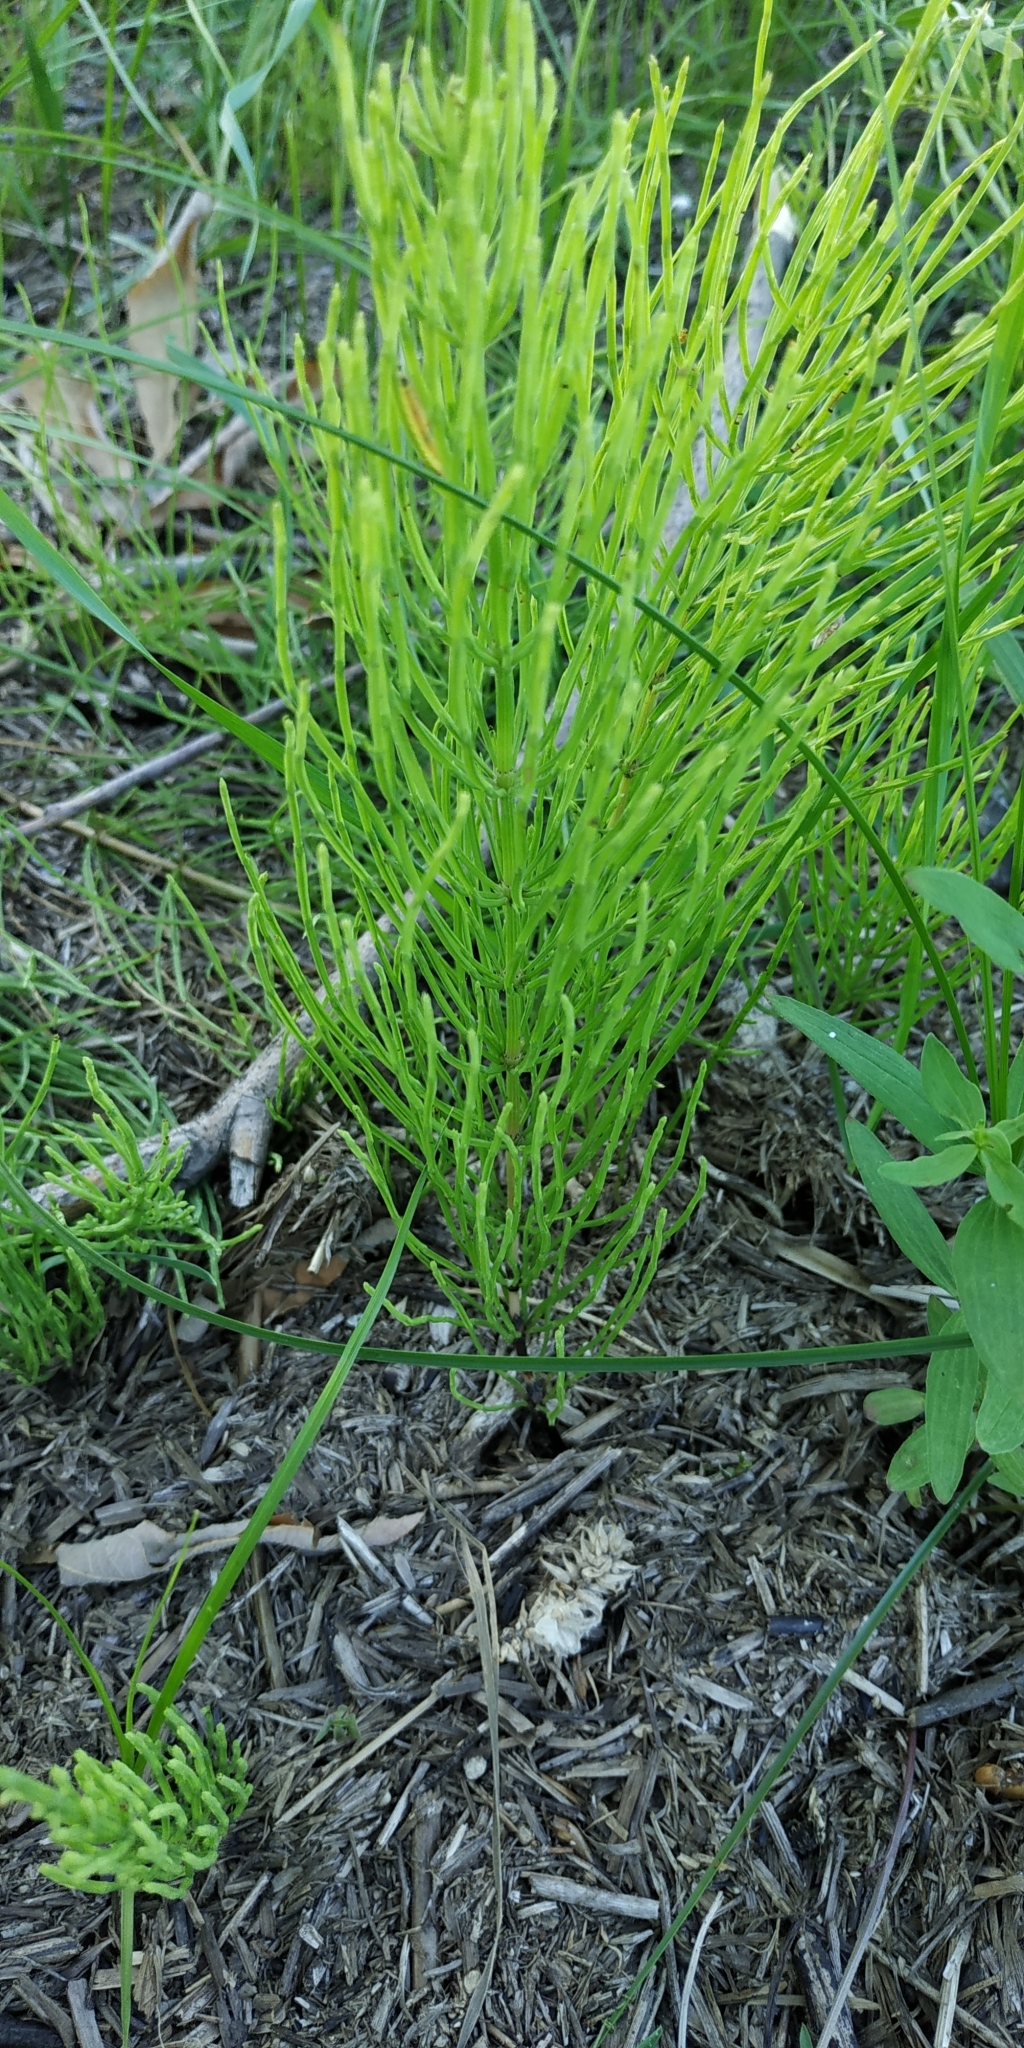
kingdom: Plantae
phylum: Tracheophyta
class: Polypodiopsida
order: Equisetales
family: Equisetaceae
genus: Equisetum
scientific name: Equisetum arvense
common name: Field horsetail
